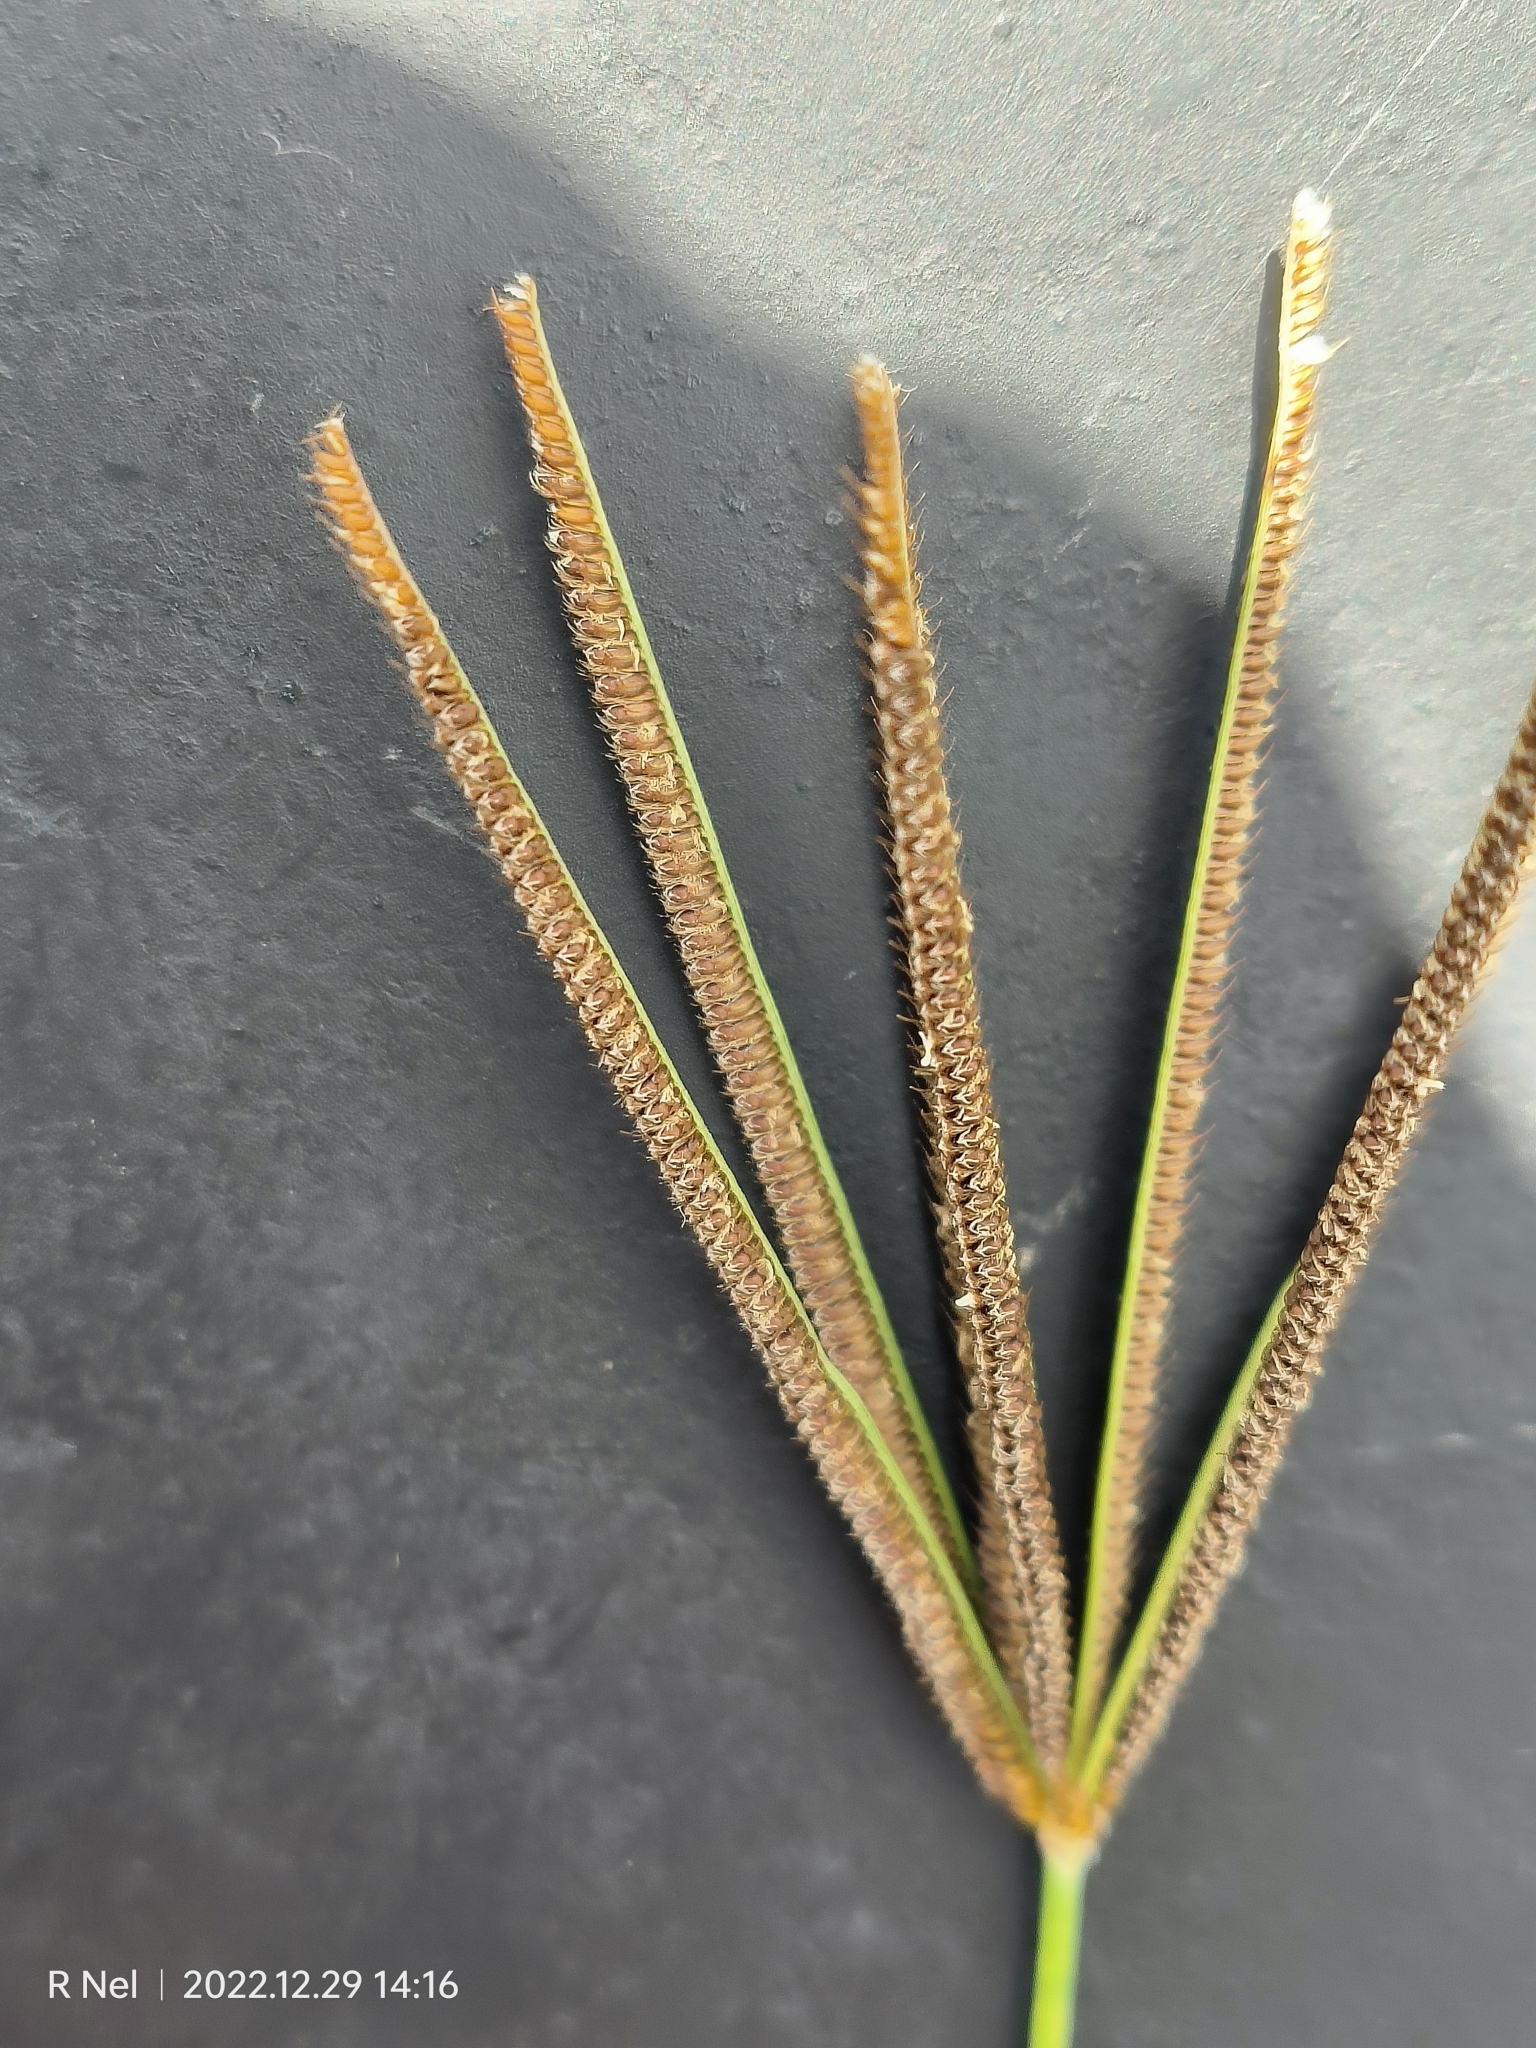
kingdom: Plantae
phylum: Tracheophyta
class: Liliopsida
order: Poales
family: Poaceae
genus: Eustachys
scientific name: Eustachys paspaloides
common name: Caribbean fingergrass
